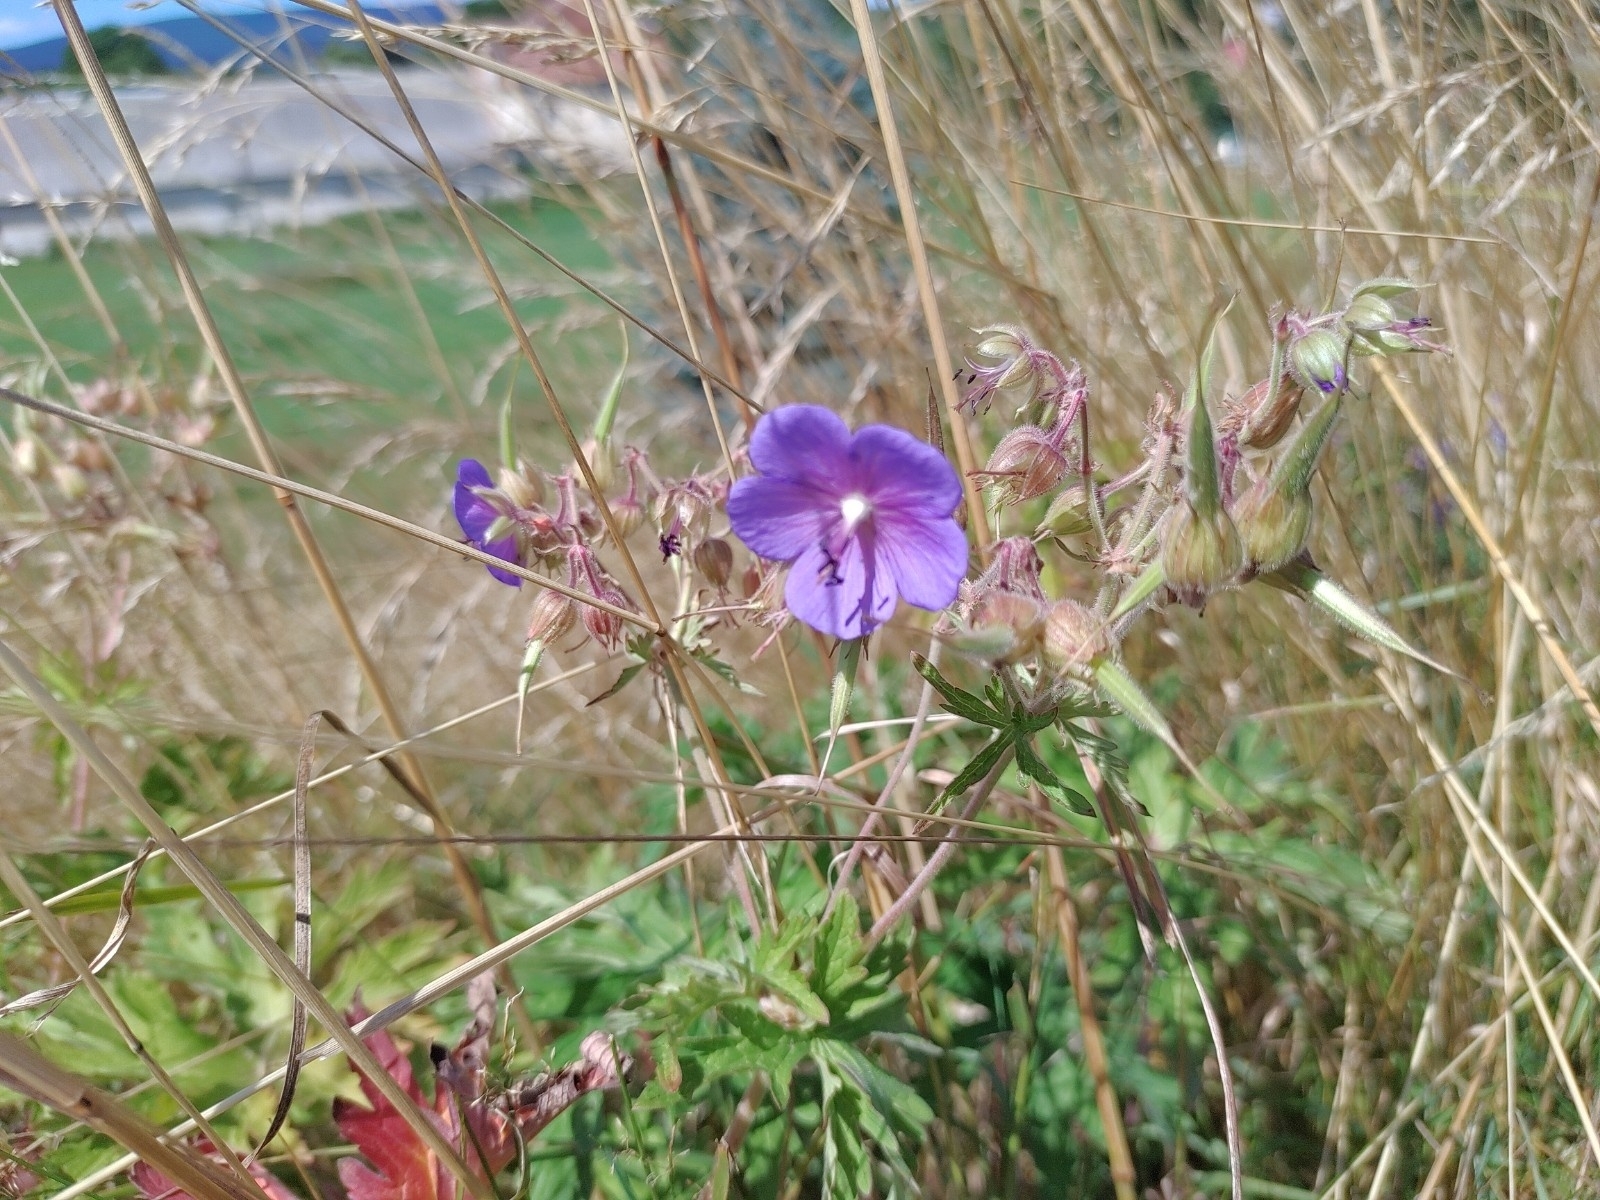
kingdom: Plantae
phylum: Tracheophyta
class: Magnoliopsida
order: Geraniales
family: Geraniaceae
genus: Geranium
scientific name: Geranium pratense
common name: Meadow crane's-bill
